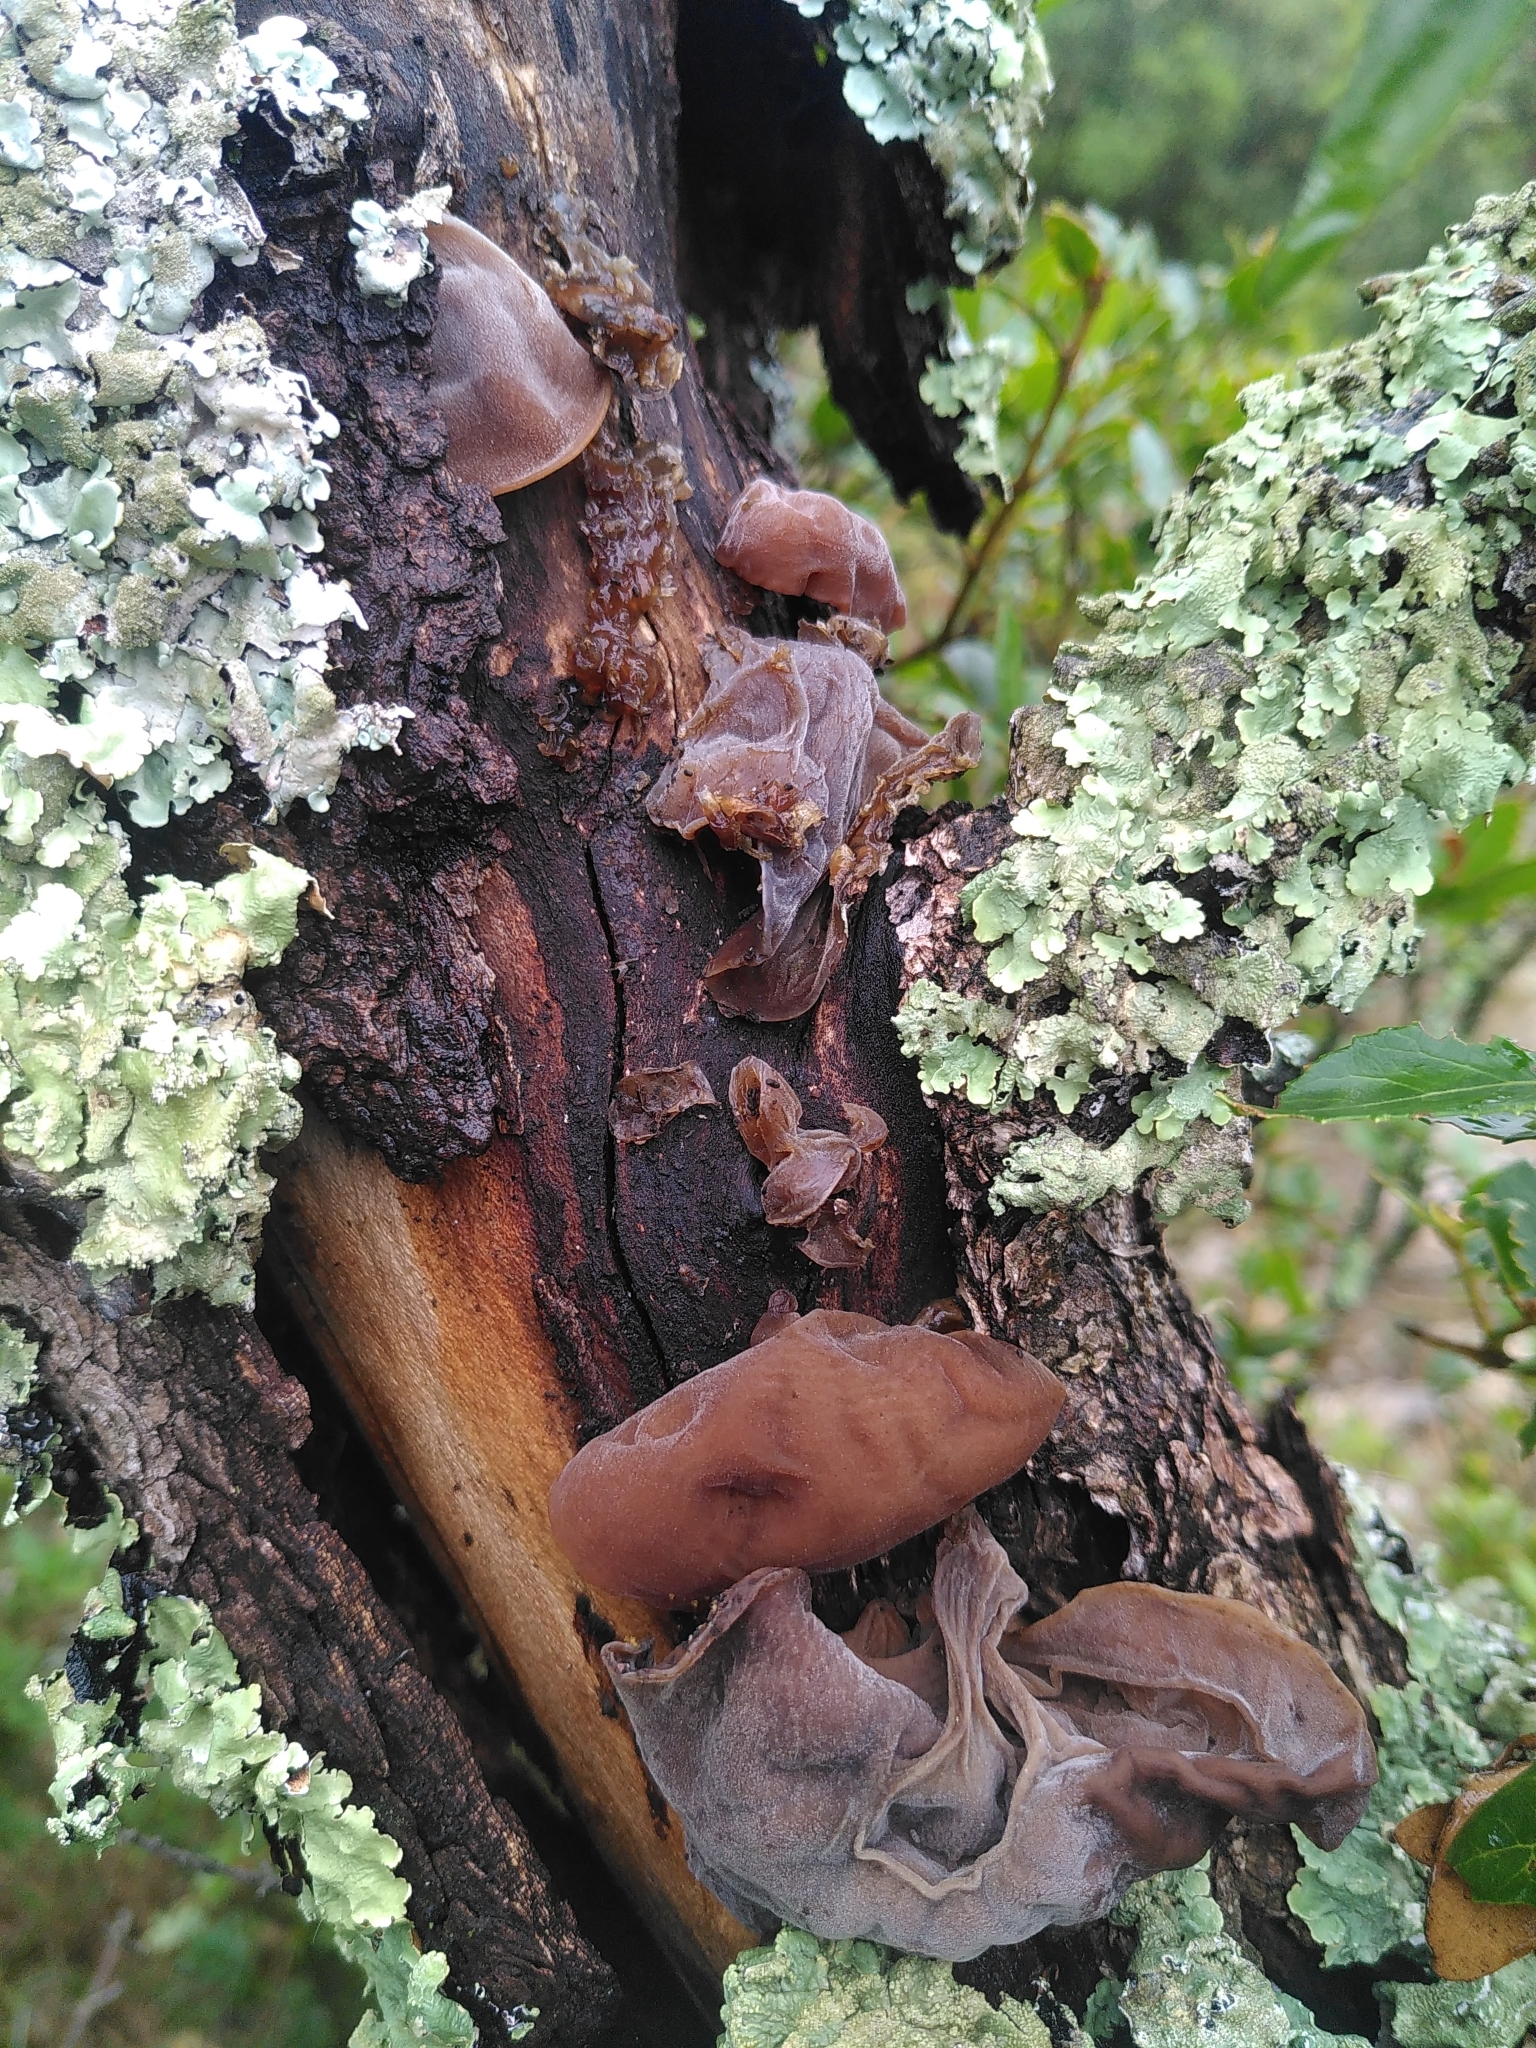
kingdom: Fungi
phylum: Basidiomycota
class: Agaricomycetes
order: Auriculariales
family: Auriculariaceae
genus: Auricularia
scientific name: Auricularia auricula-judae
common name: Jelly ear
